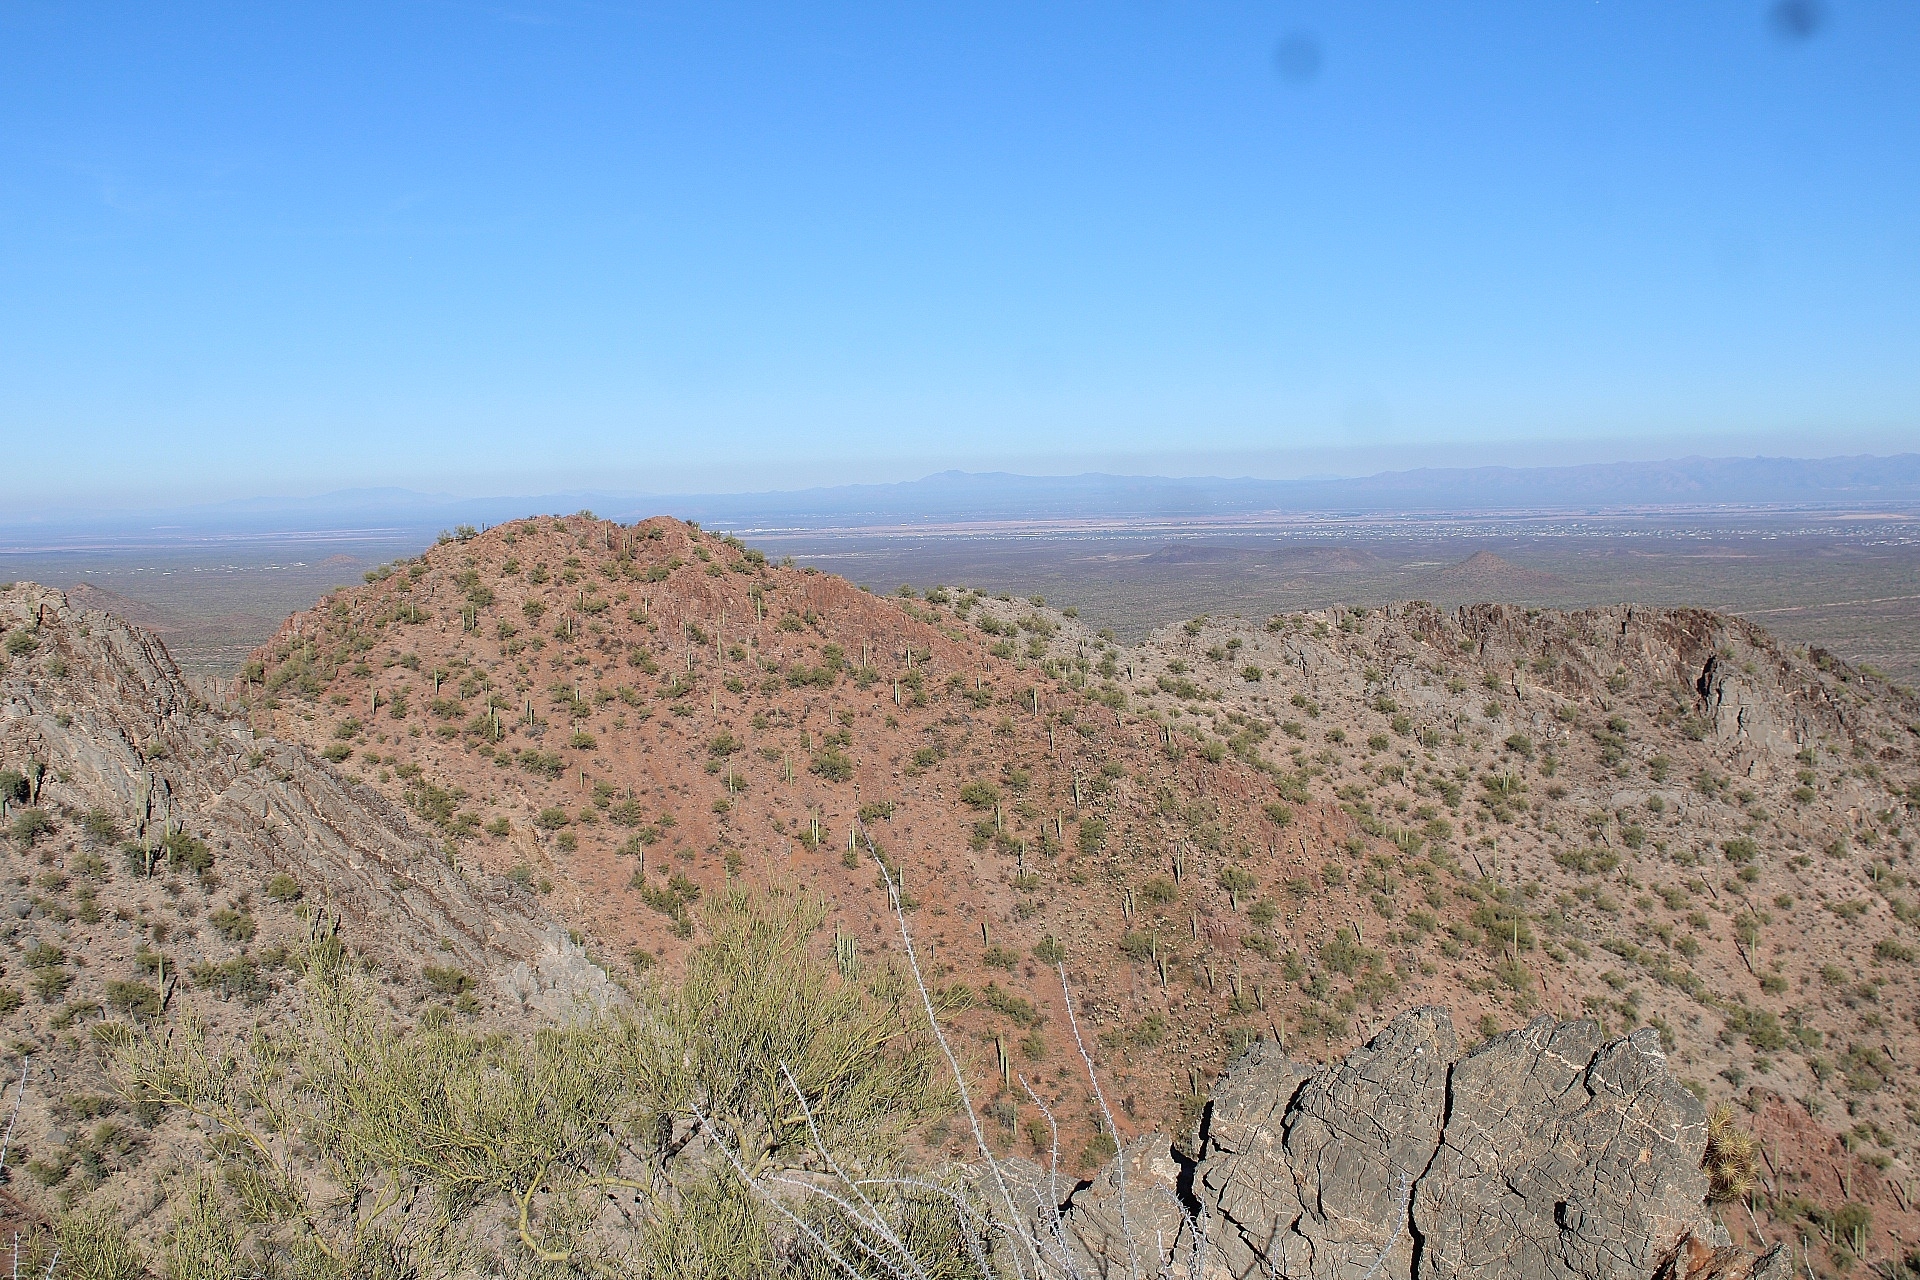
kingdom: Plantae
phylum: Tracheophyta
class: Magnoliopsida
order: Caryophyllales
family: Cactaceae
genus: Carnegiea
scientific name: Carnegiea gigantea
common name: Saguaro
